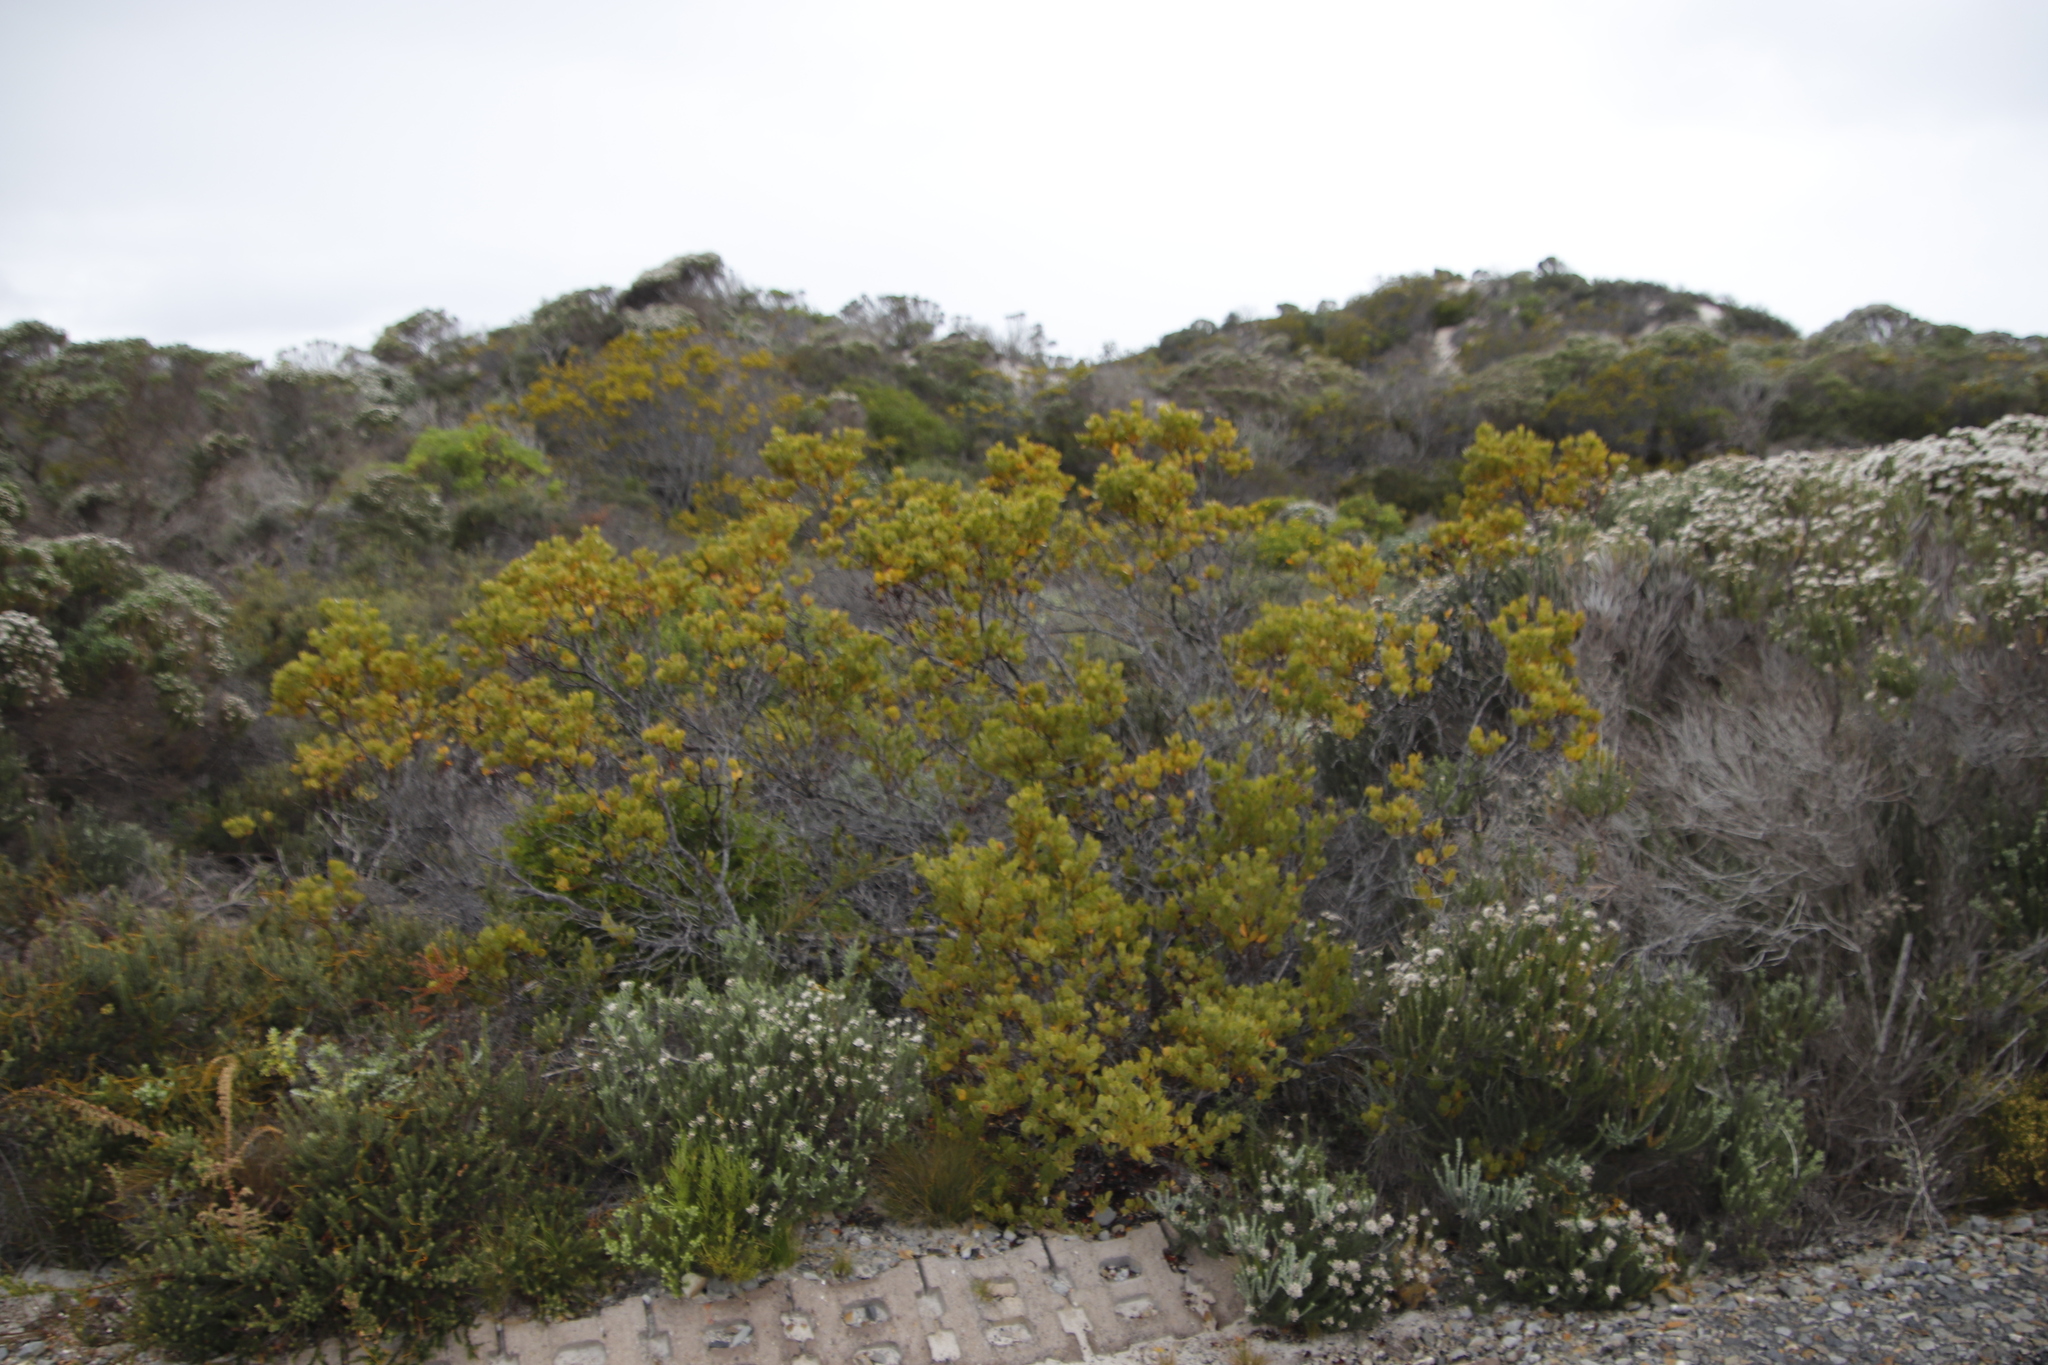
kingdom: Plantae
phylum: Tracheophyta
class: Magnoliopsida
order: Santalales
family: Santalaceae
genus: Osyris
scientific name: Osyris compressa
